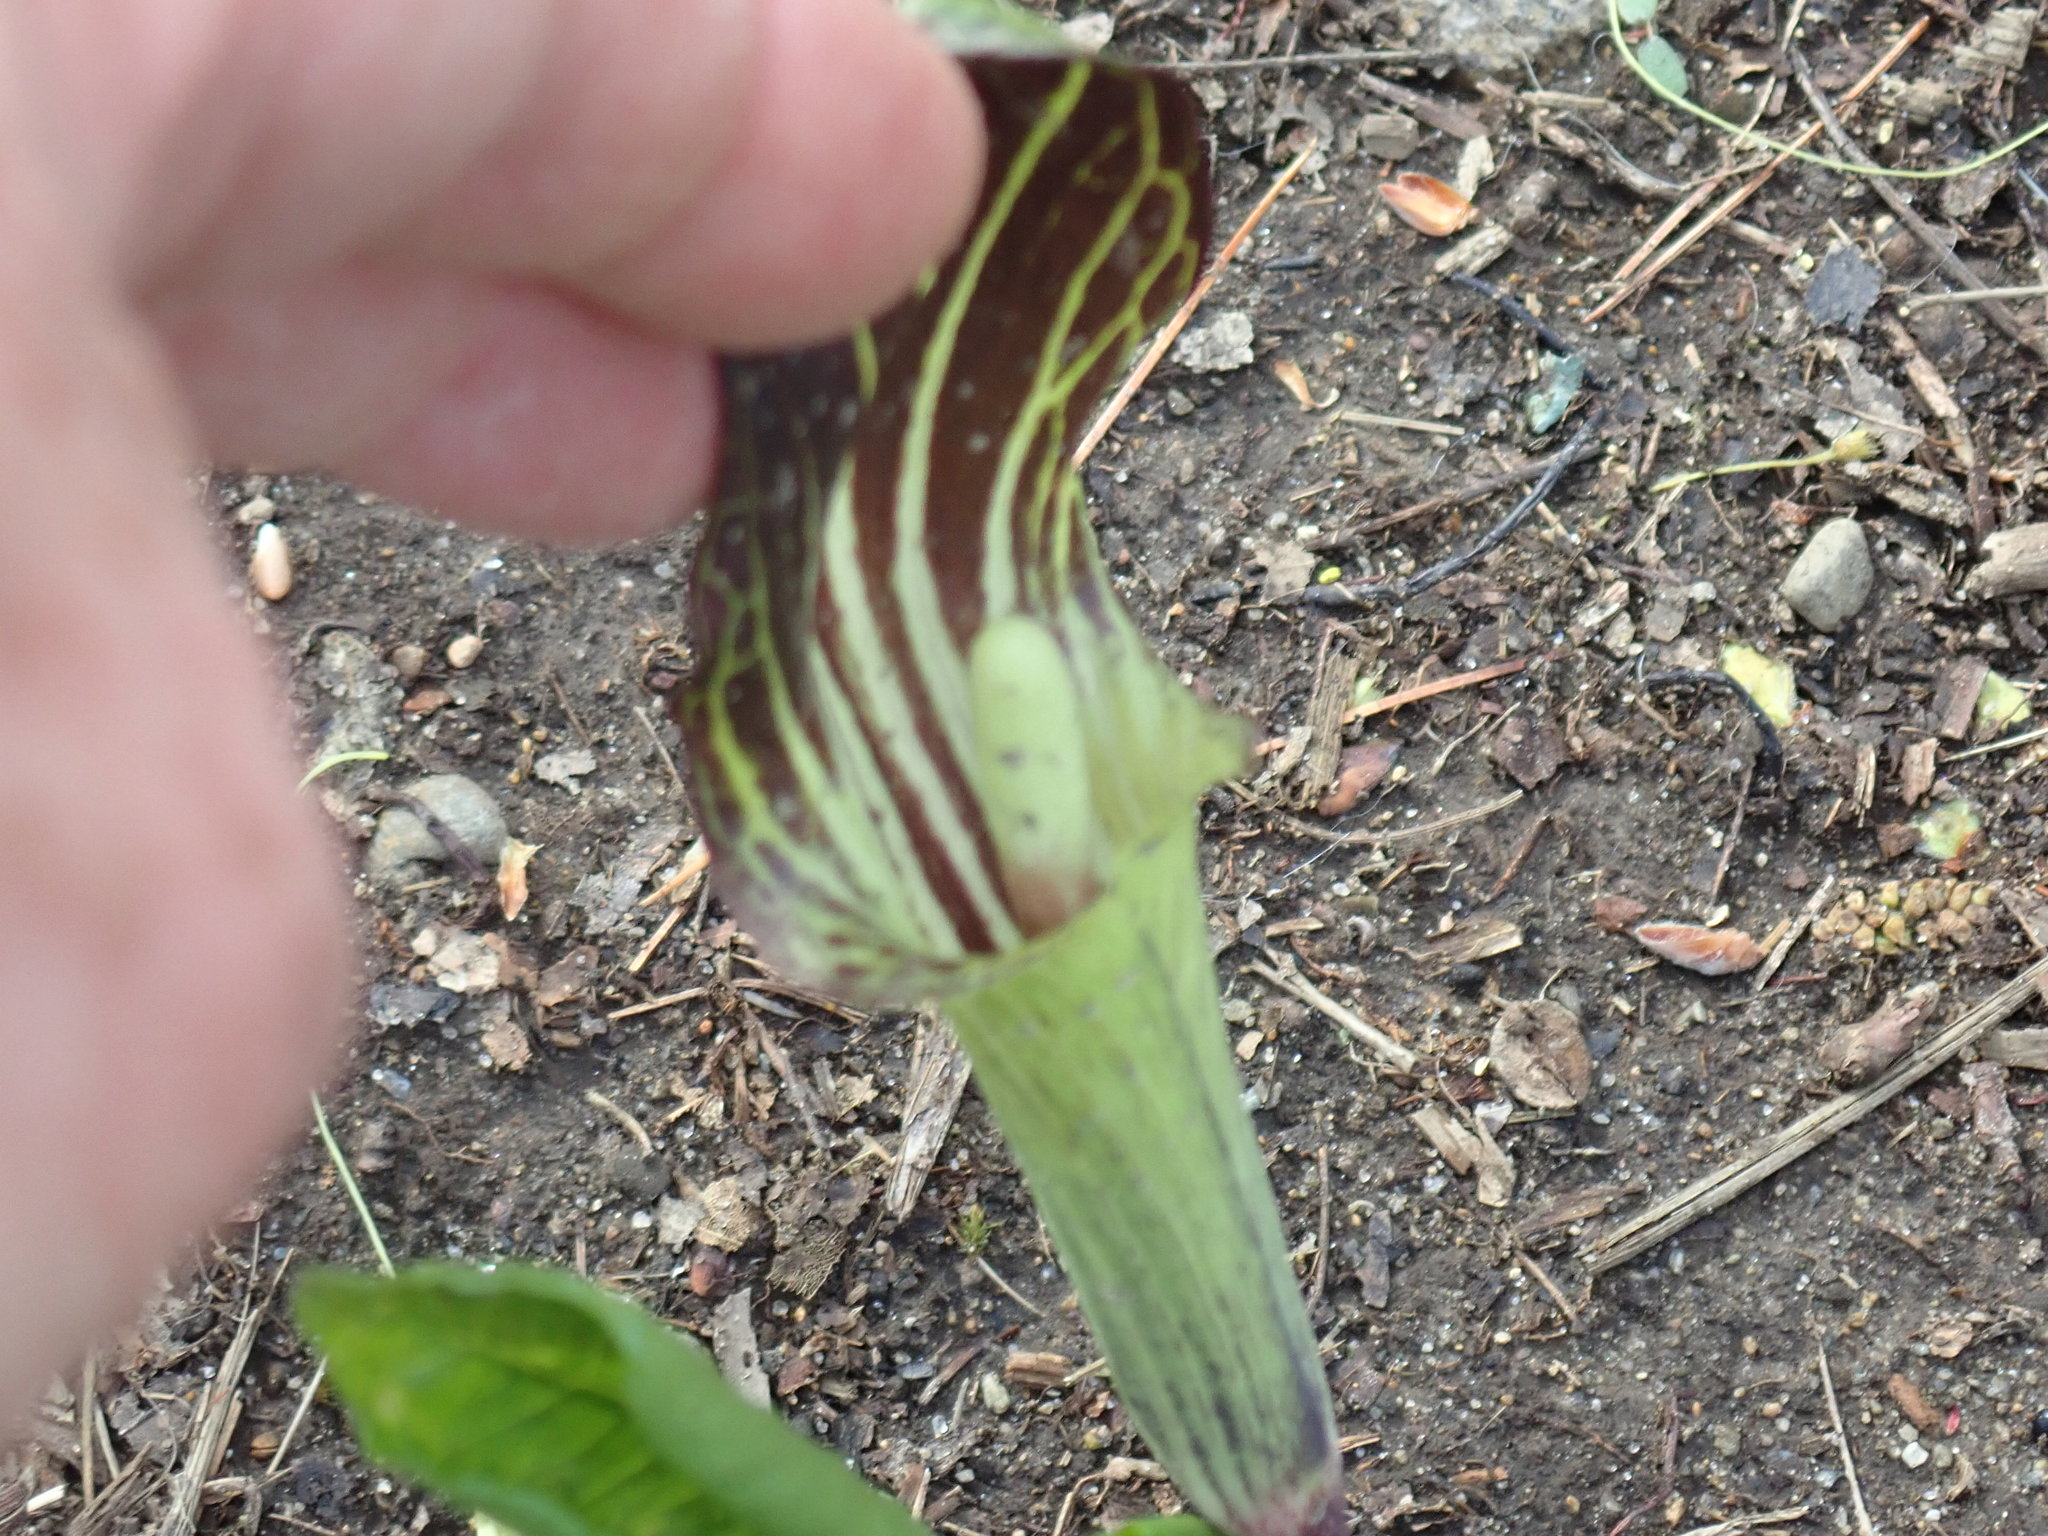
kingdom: Plantae
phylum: Tracheophyta
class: Liliopsida
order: Alismatales
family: Araceae
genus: Arisaema
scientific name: Arisaema triphyllum
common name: Jack-in-the-pulpit
